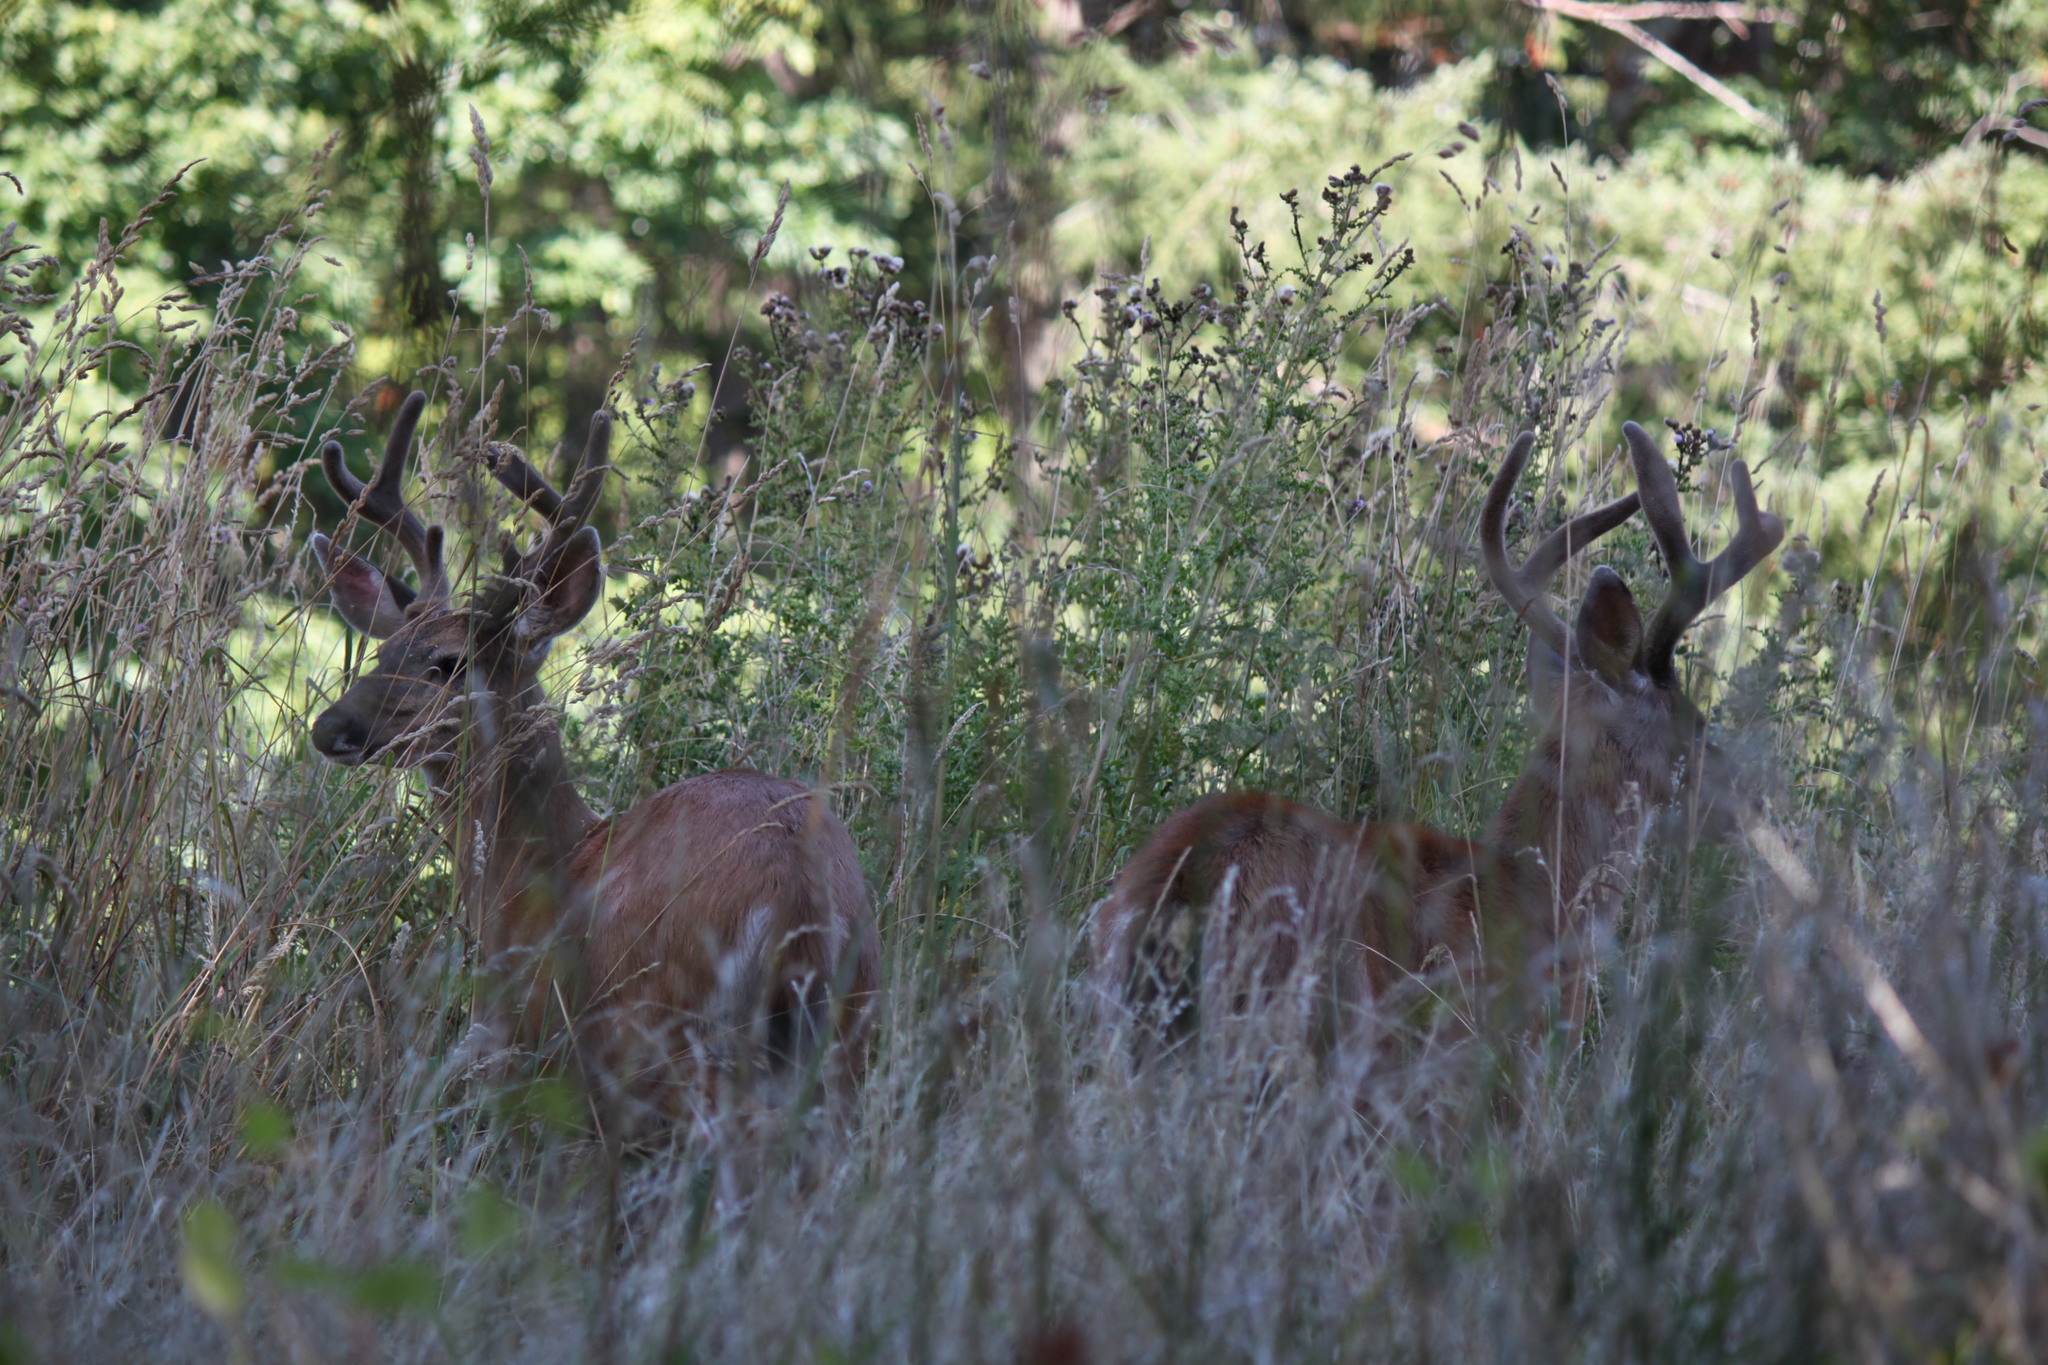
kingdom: Animalia
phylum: Chordata
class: Mammalia
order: Artiodactyla
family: Cervidae
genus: Odocoileus
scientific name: Odocoileus hemionus
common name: Mule deer
